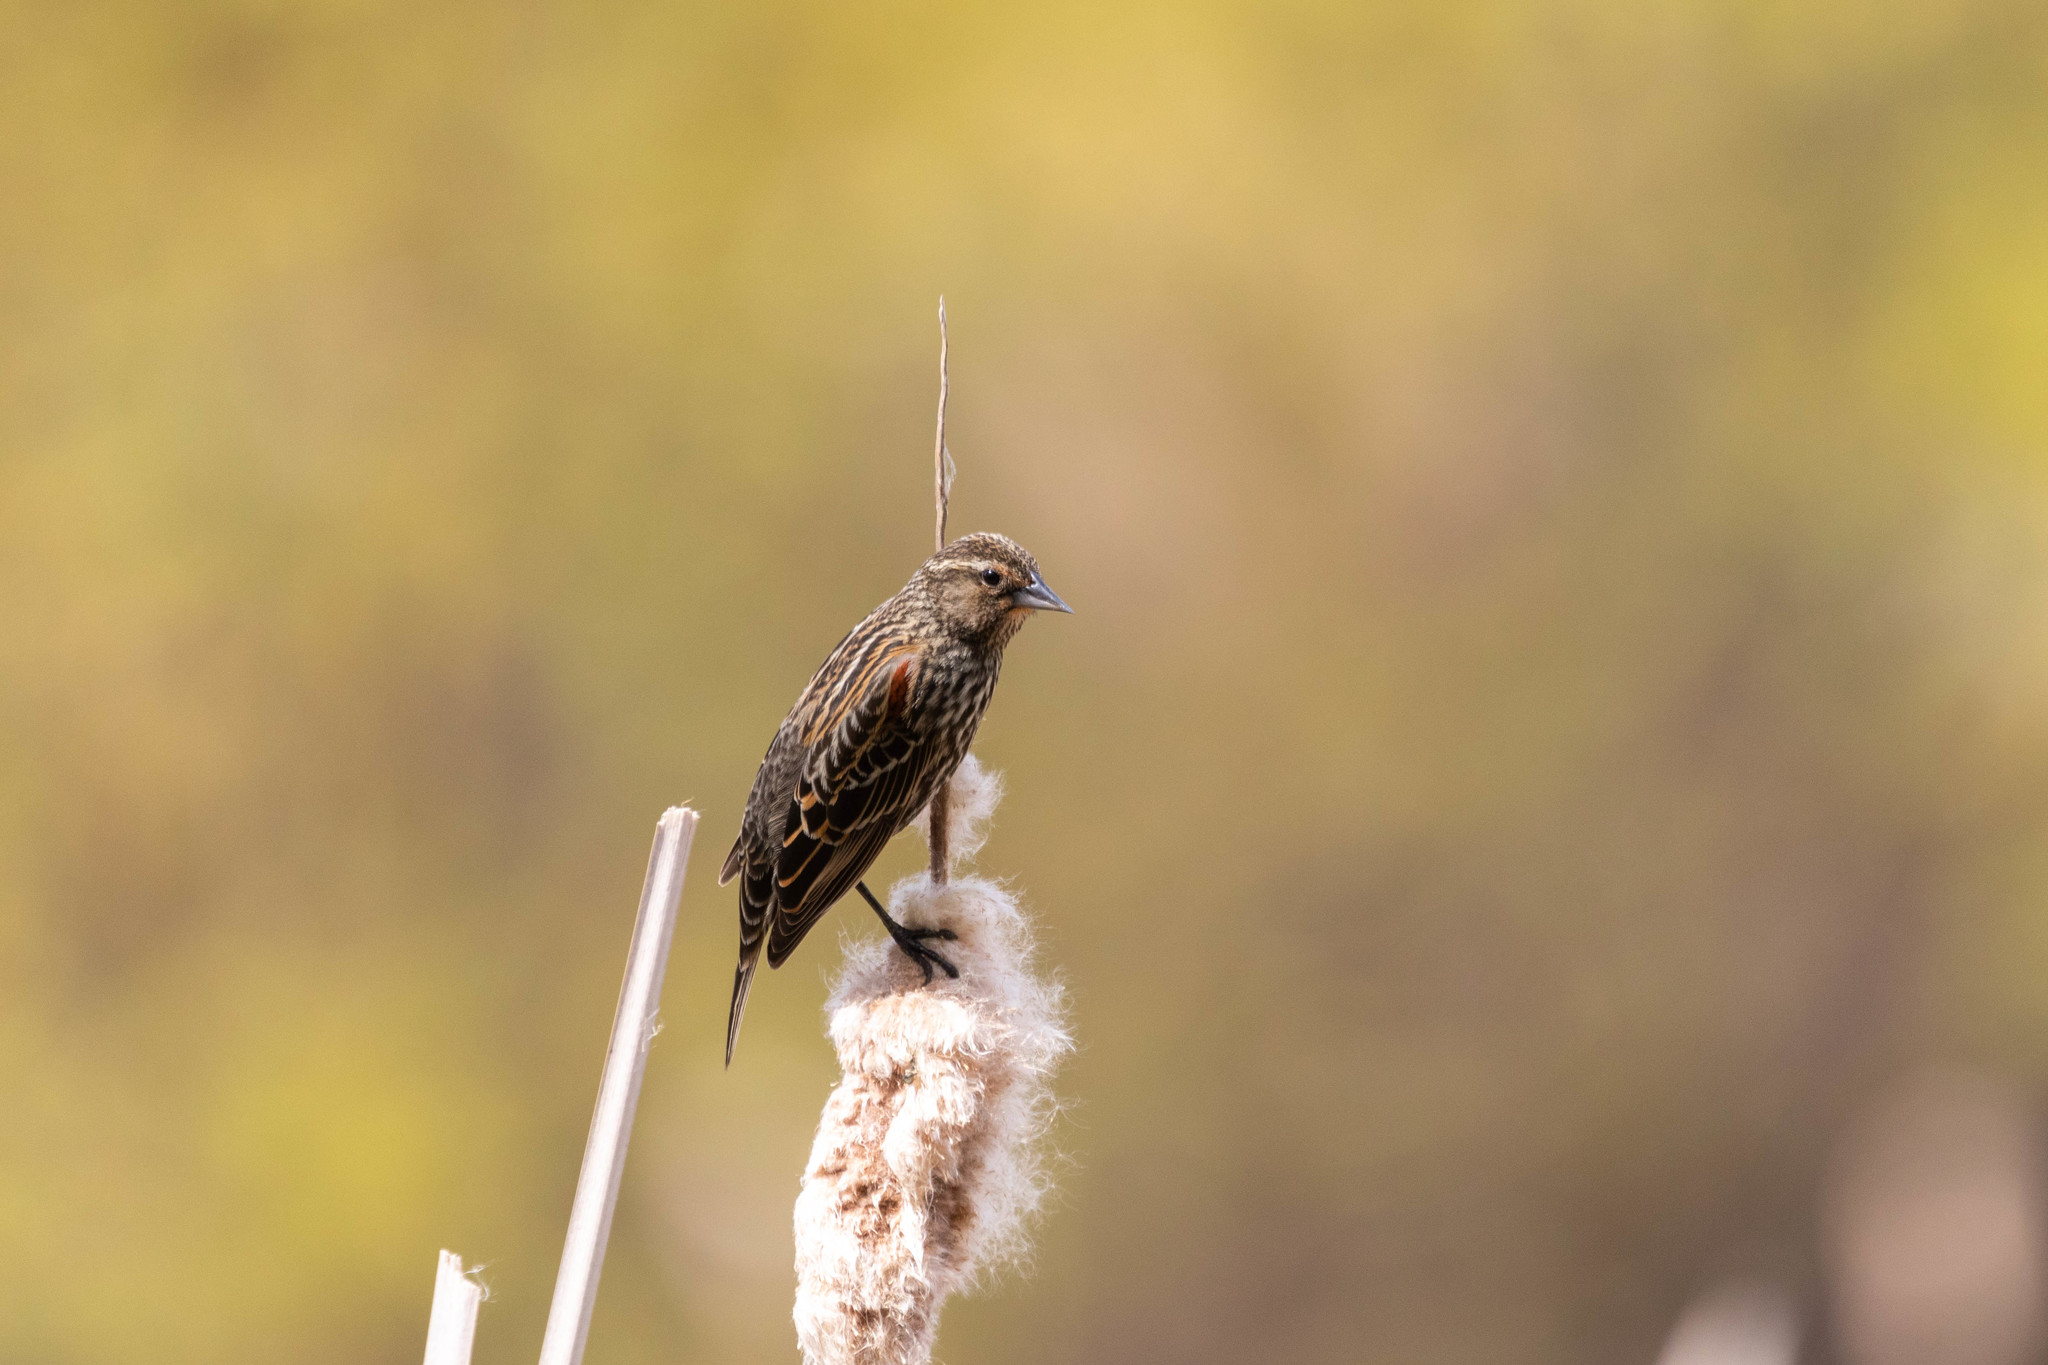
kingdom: Animalia
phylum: Chordata
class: Aves
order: Passeriformes
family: Icteridae
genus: Agelaius
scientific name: Agelaius phoeniceus
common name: Red-winged blackbird
